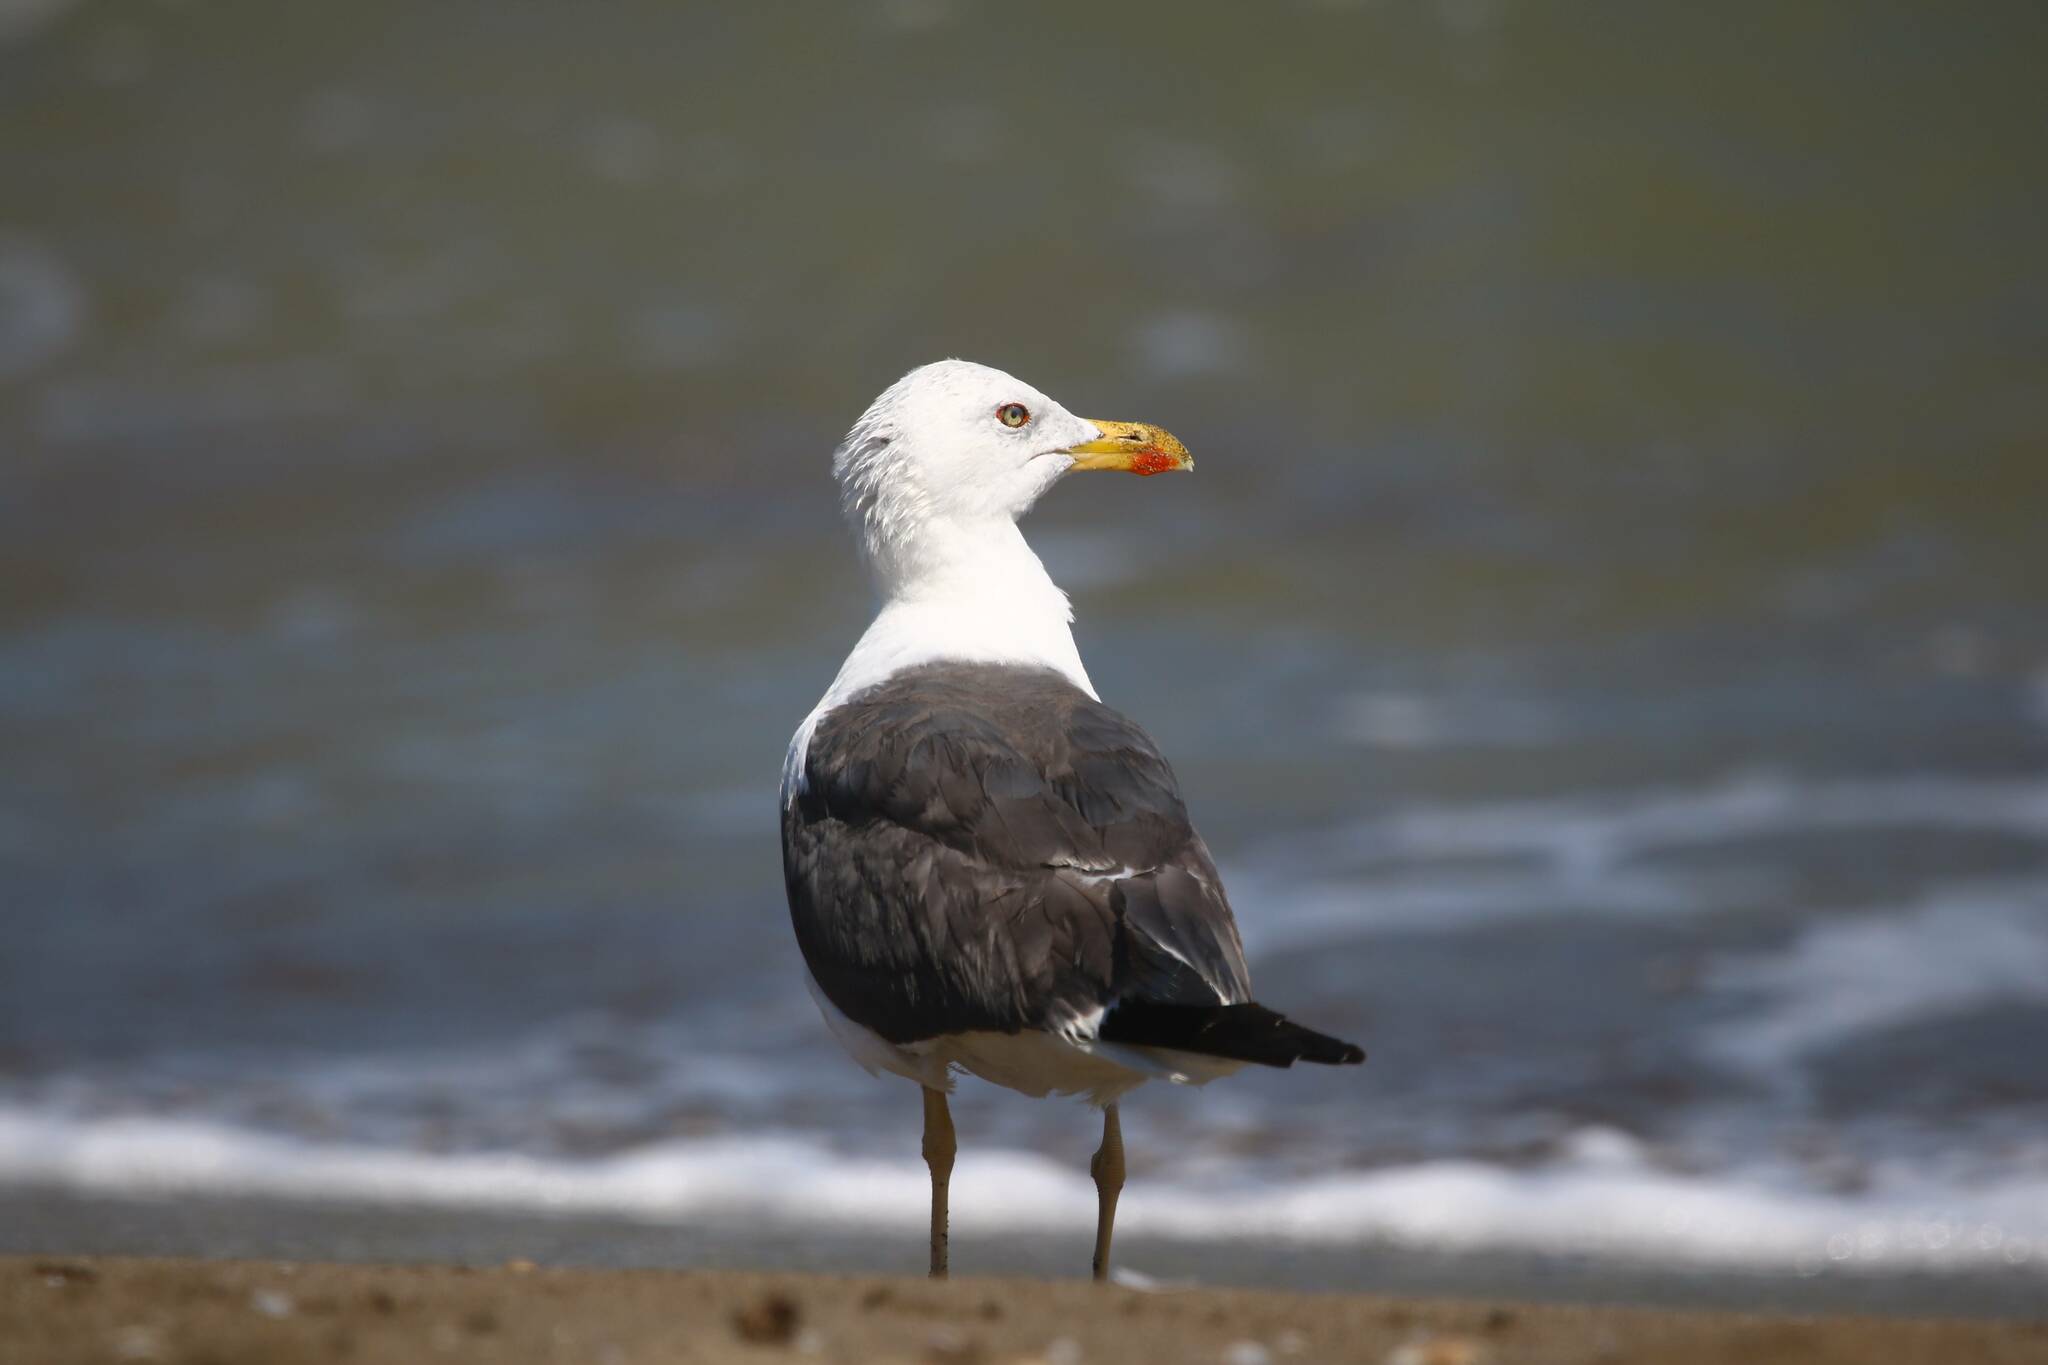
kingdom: Animalia
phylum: Chordata
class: Aves
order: Charadriiformes
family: Laridae
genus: Larus
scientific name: Larus fuscus
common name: Lesser black-backed gull
